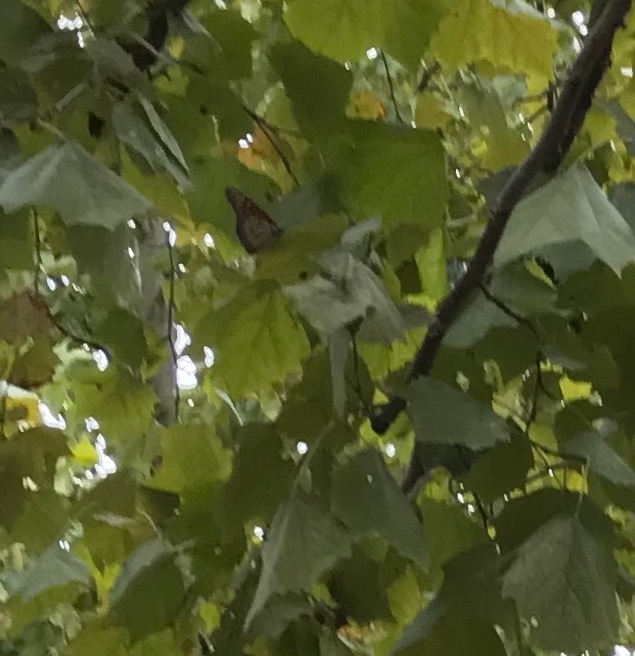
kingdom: Animalia
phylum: Arthropoda
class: Insecta
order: Lepidoptera
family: Nymphalidae
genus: Danaus
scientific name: Danaus plexippus
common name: Monarch
